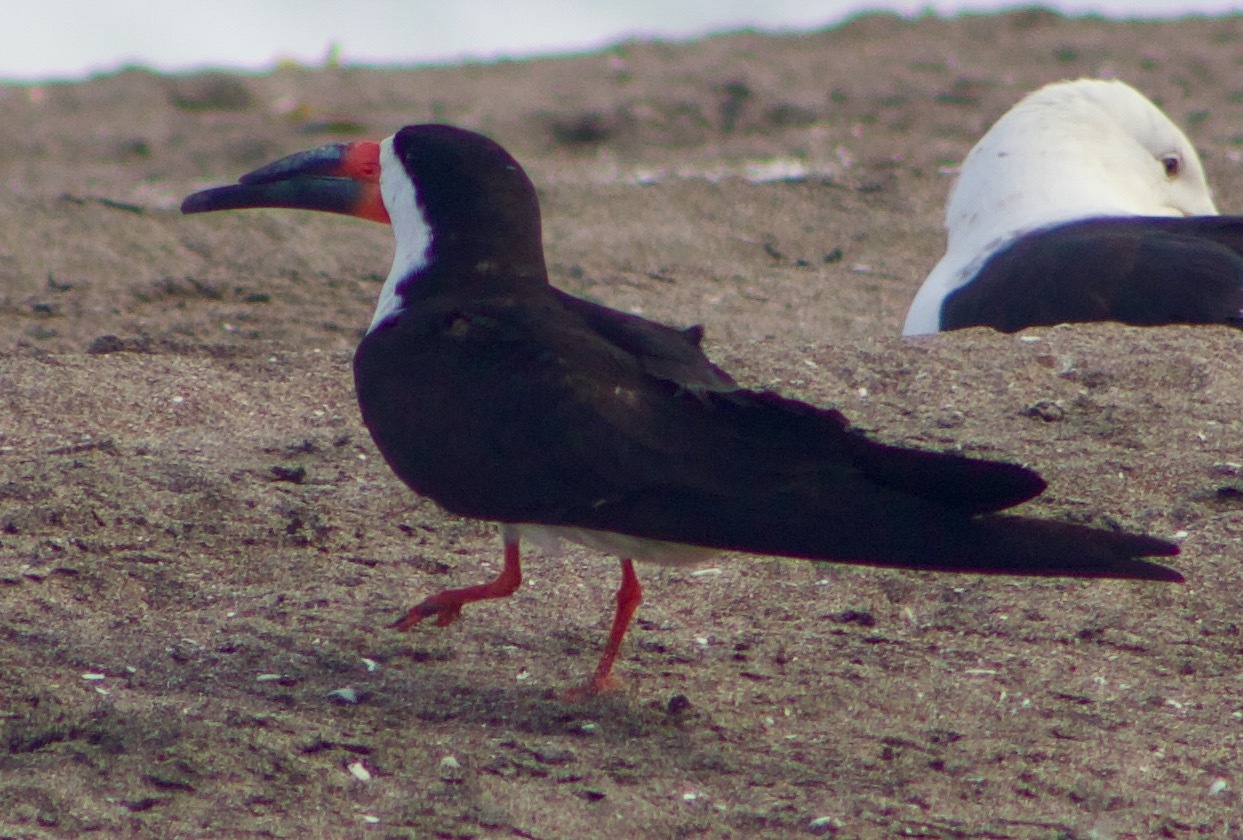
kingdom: Animalia
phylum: Chordata
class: Aves
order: Charadriiformes
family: Laridae
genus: Rynchops
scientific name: Rynchops niger
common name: Black skimmer
